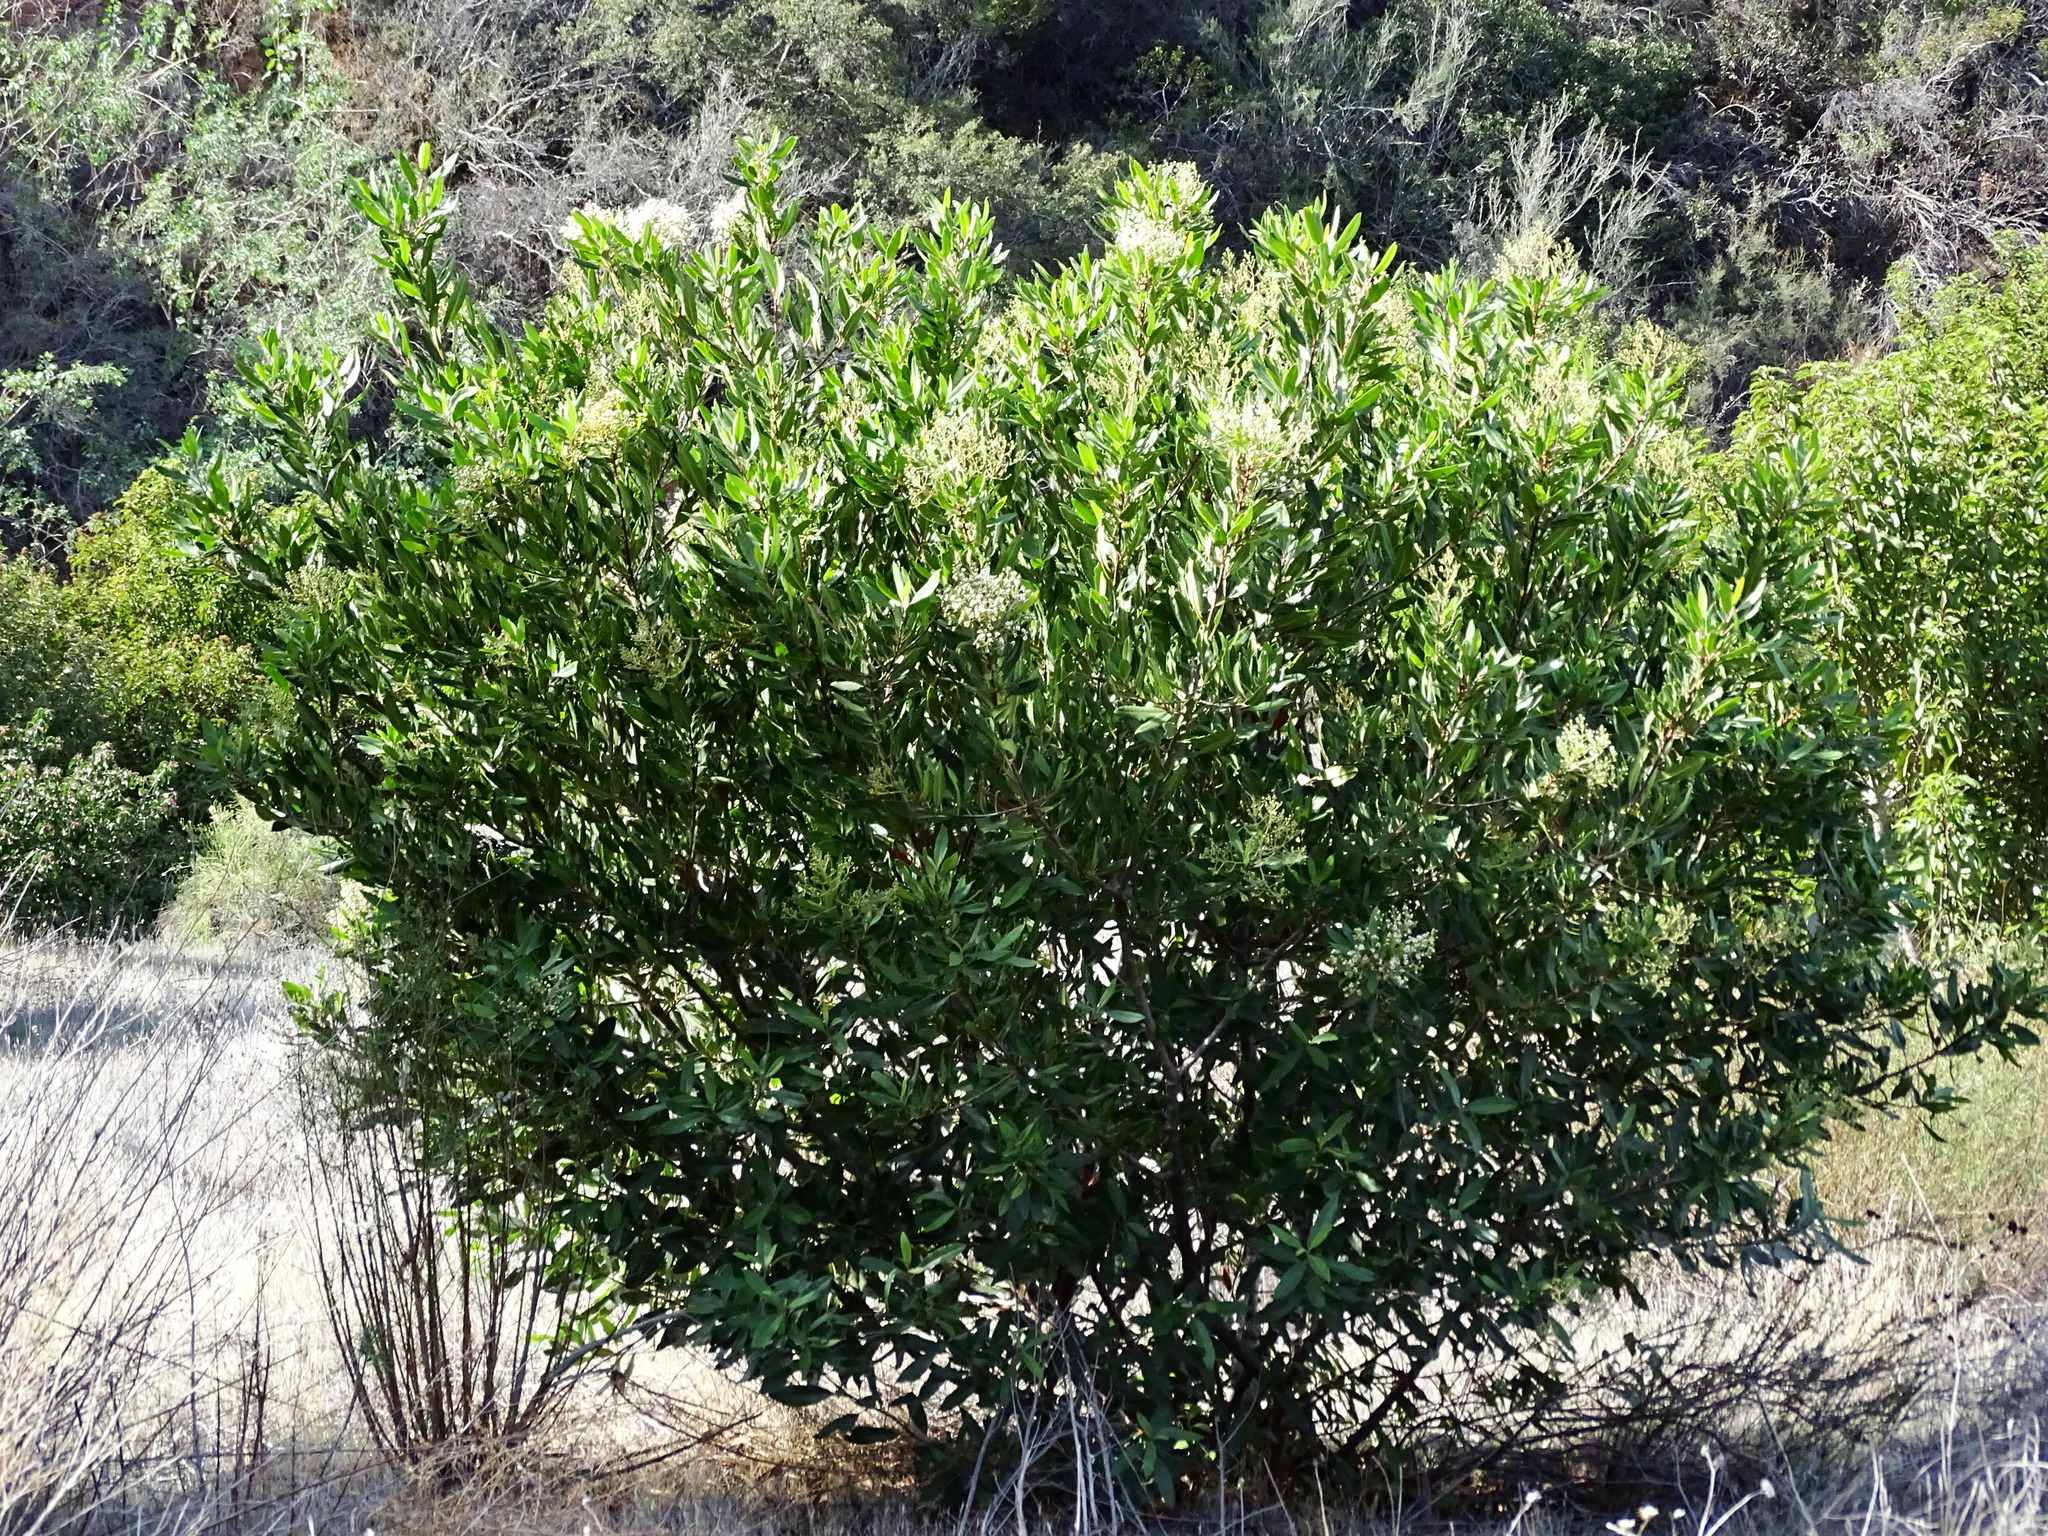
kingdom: Plantae
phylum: Tracheophyta
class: Magnoliopsida
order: Rosales
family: Rosaceae
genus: Heteromeles
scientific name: Heteromeles arbutifolia
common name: California-holly
